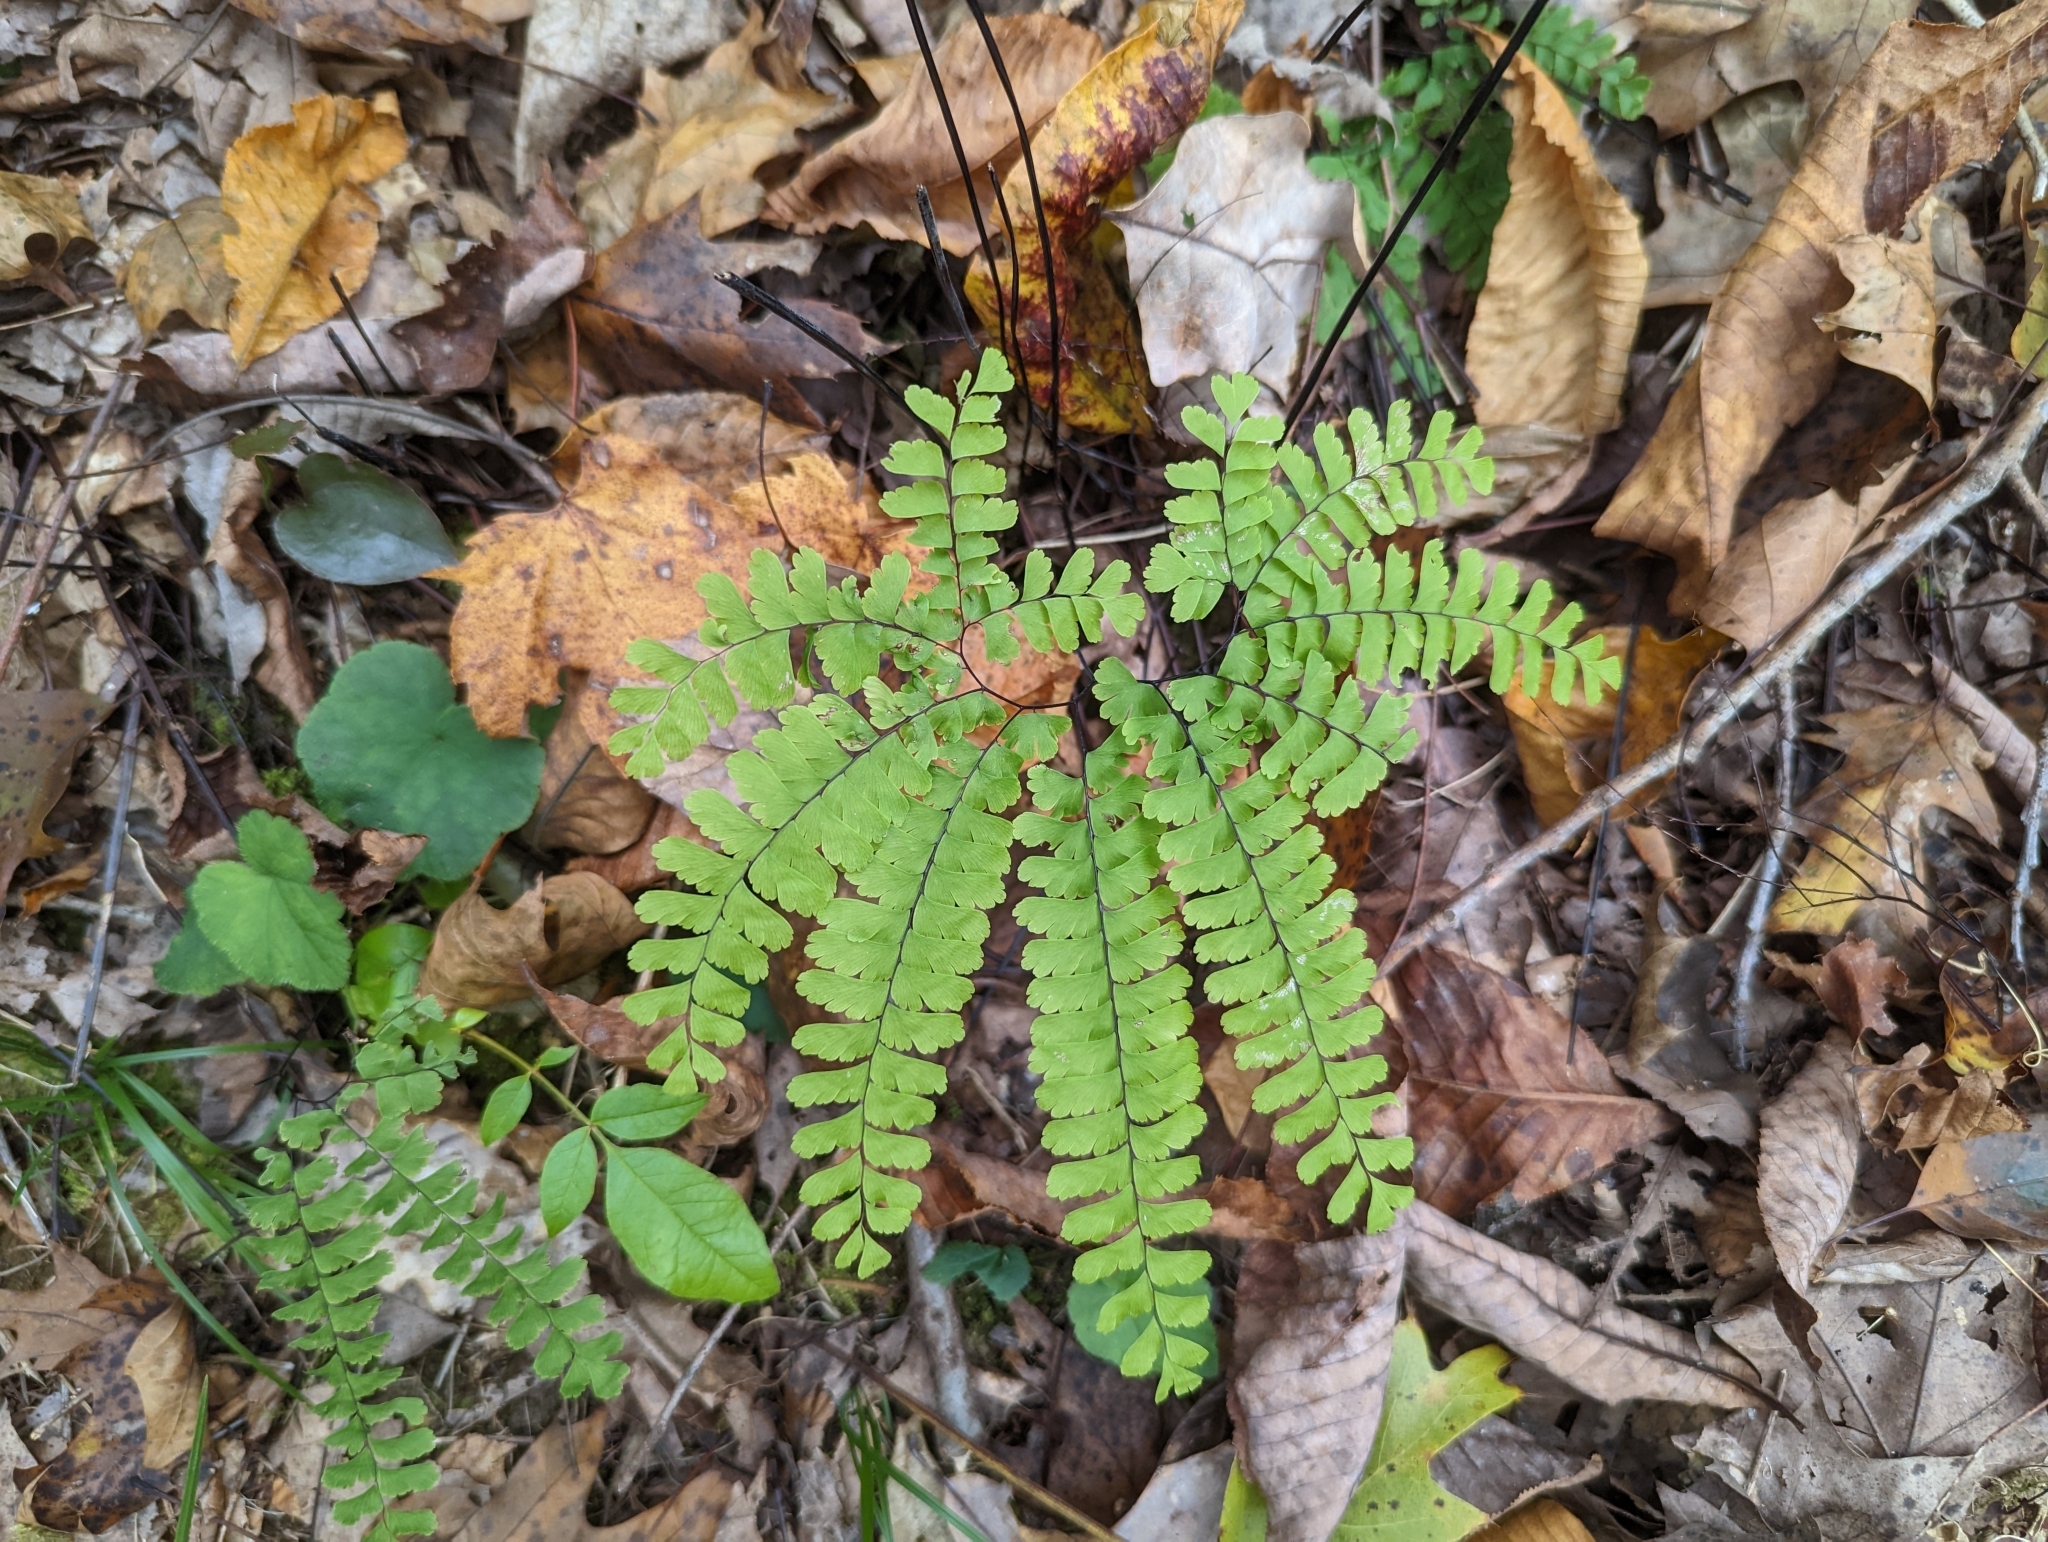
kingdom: Plantae
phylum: Tracheophyta
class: Polypodiopsida
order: Polypodiales
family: Pteridaceae
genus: Adiantum
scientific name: Adiantum pedatum
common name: Five-finger fern
